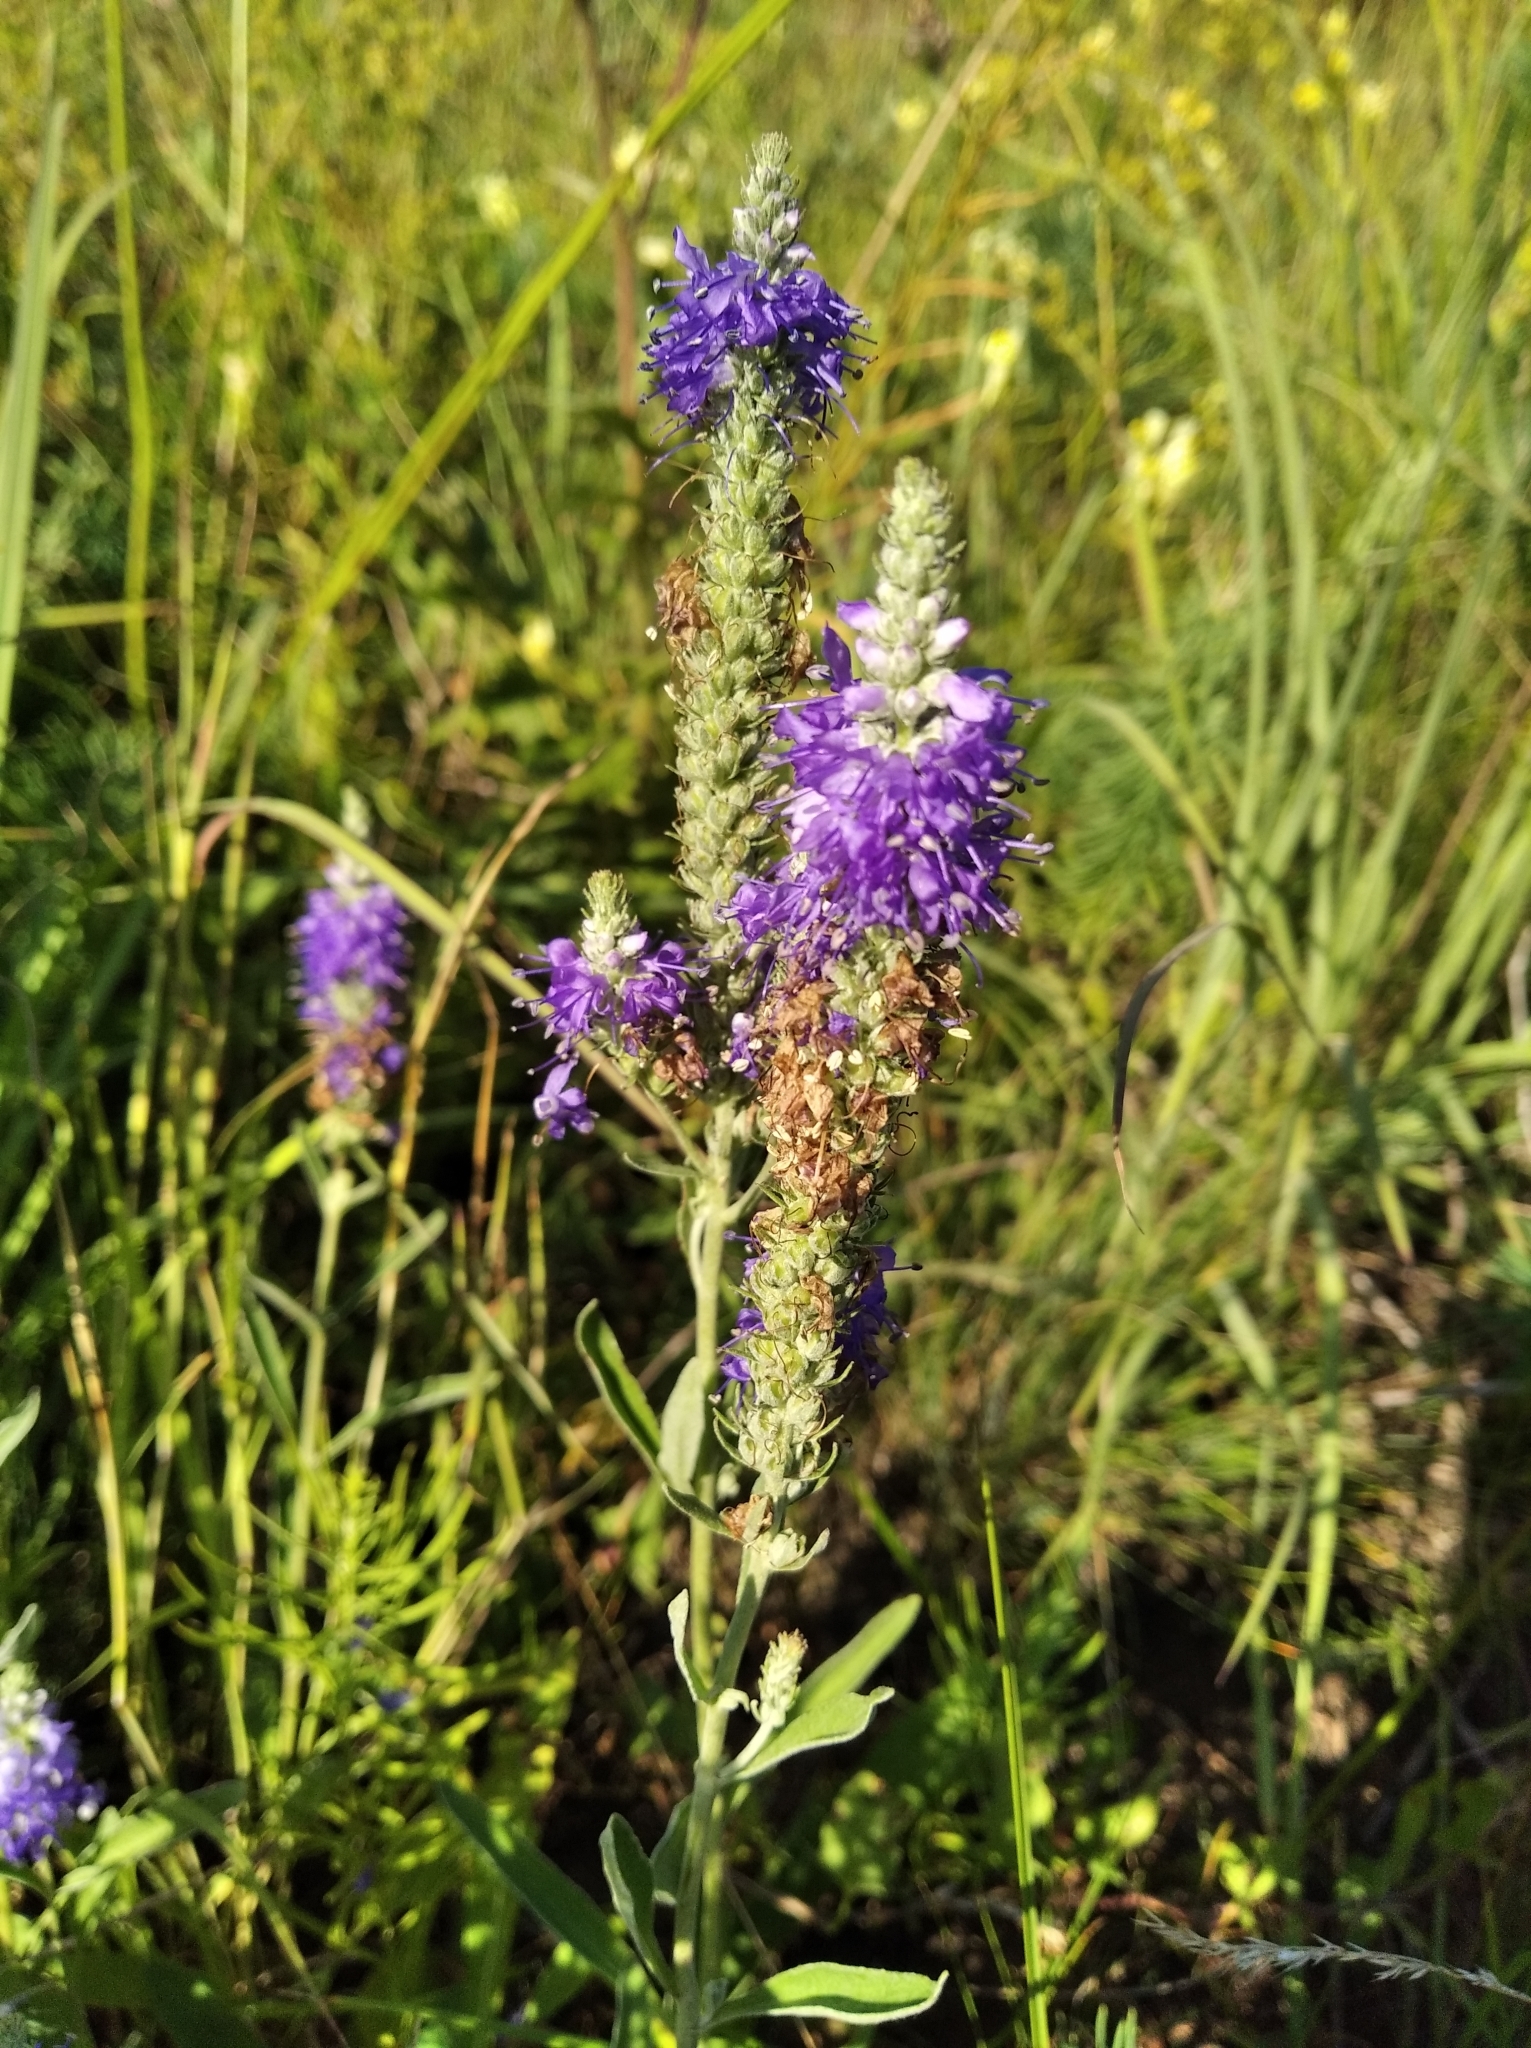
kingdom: Plantae
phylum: Tracheophyta
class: Magnoliopsida
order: Lamiales
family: Plantaginaceae
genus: Veronica
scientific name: Veronica spicata
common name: Spiked speedwell
